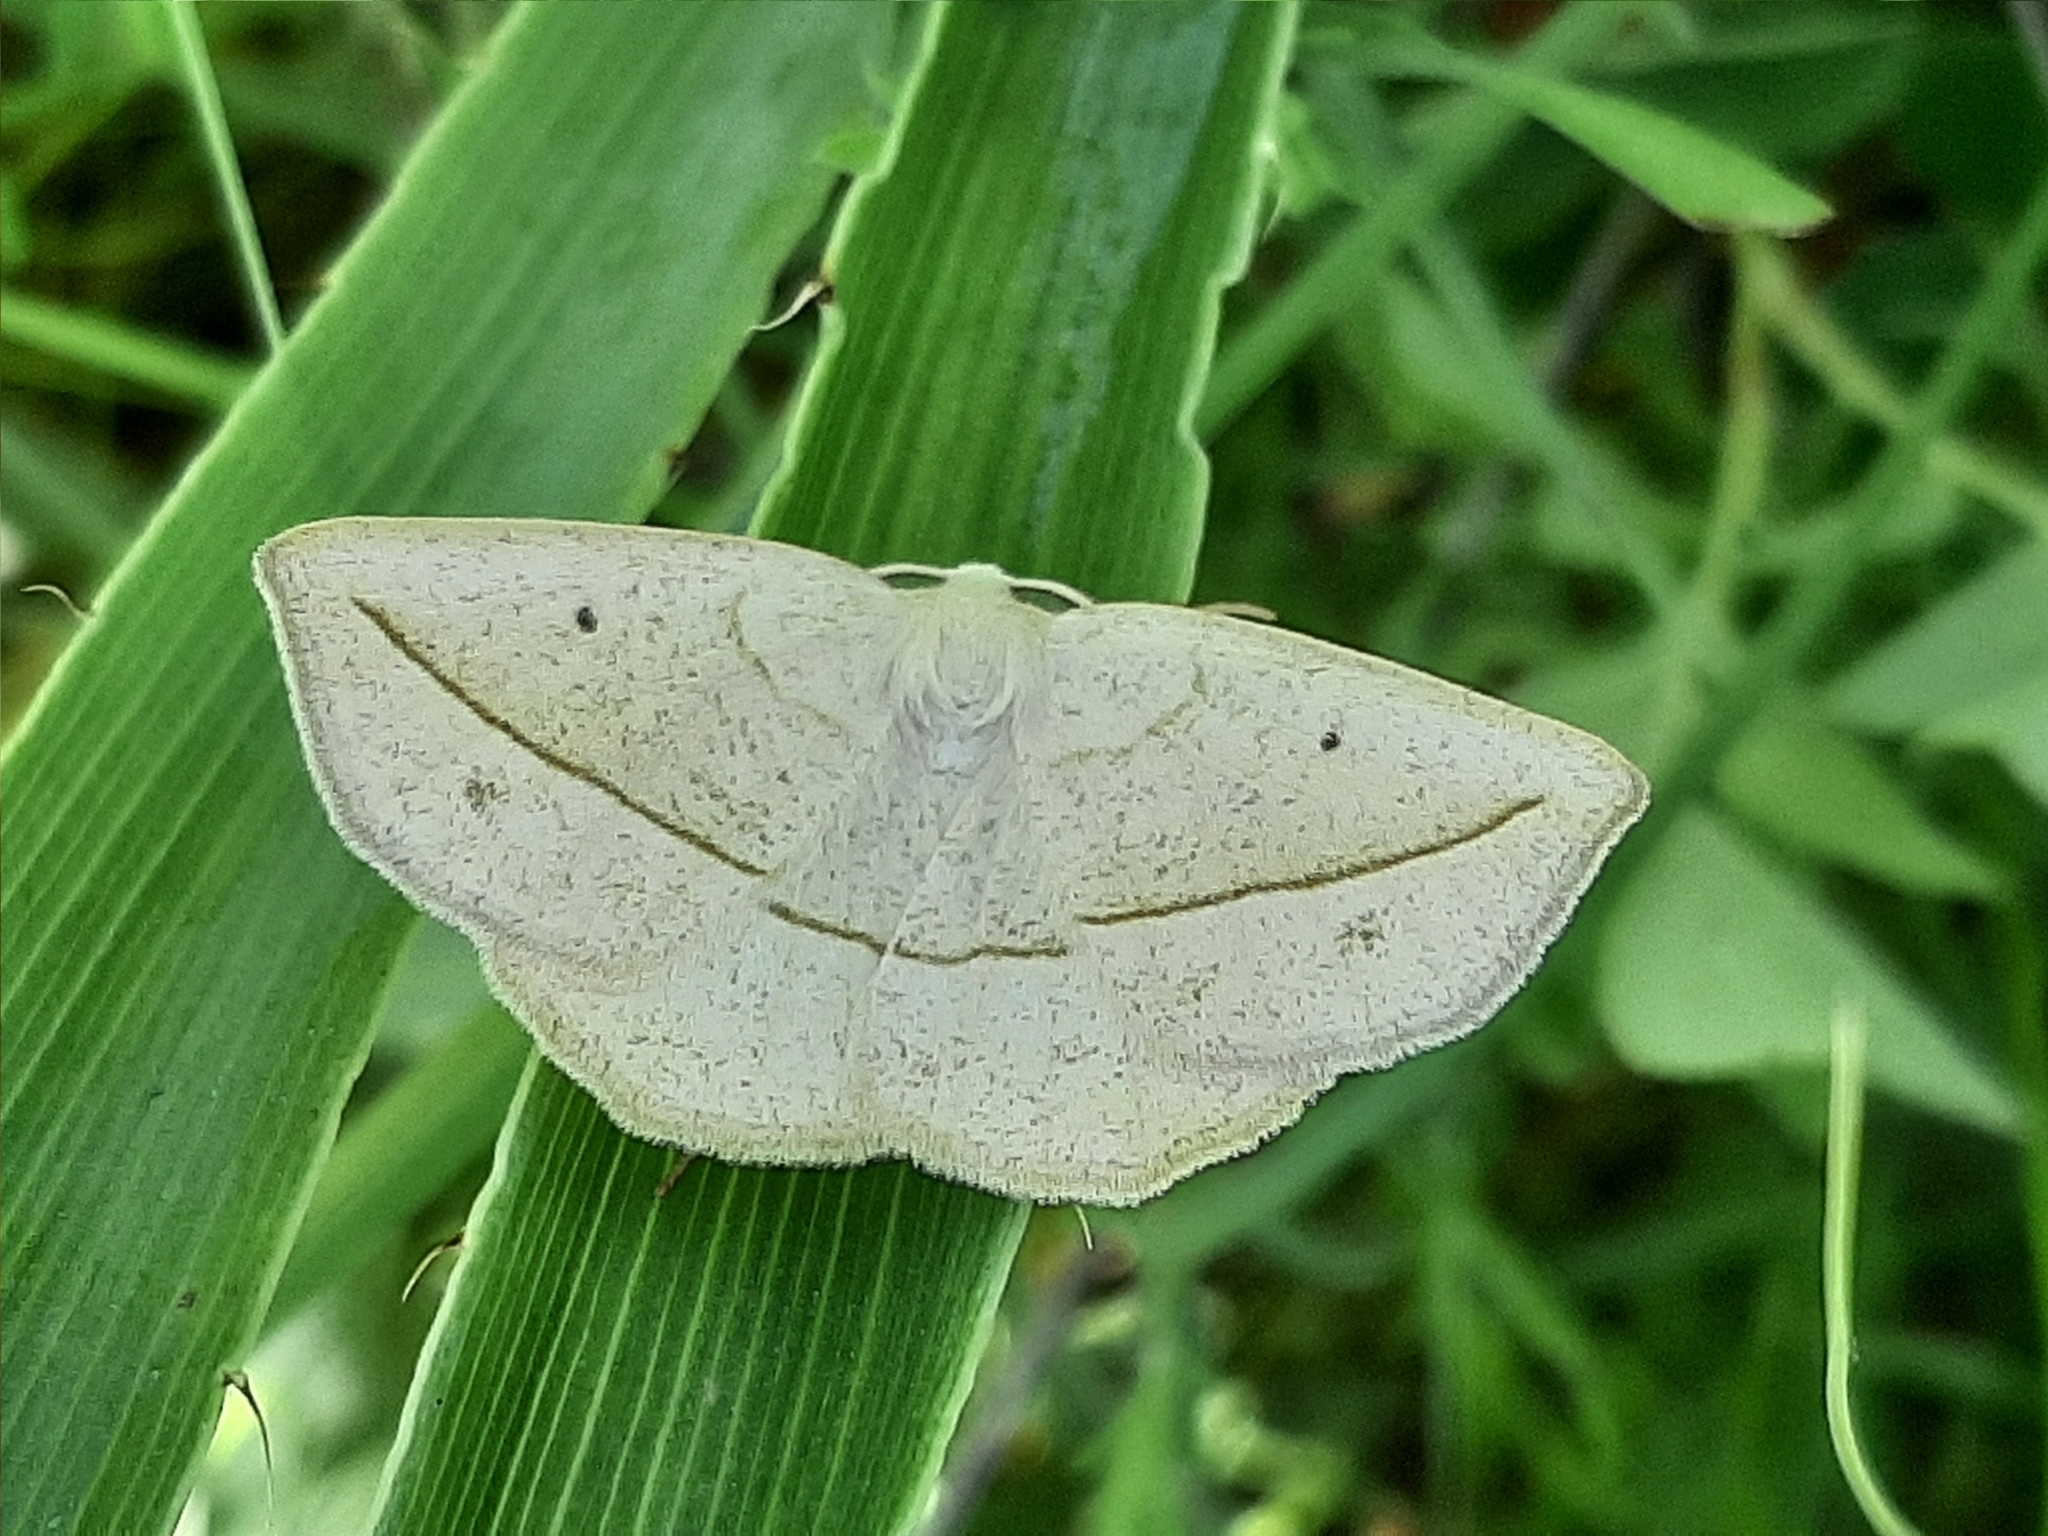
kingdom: Animalia
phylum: Arthropoda
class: Insecta
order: Lepidoptera
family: Geometridae
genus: Eusarca
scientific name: Eusarca confusaria
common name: Confused eusarca
